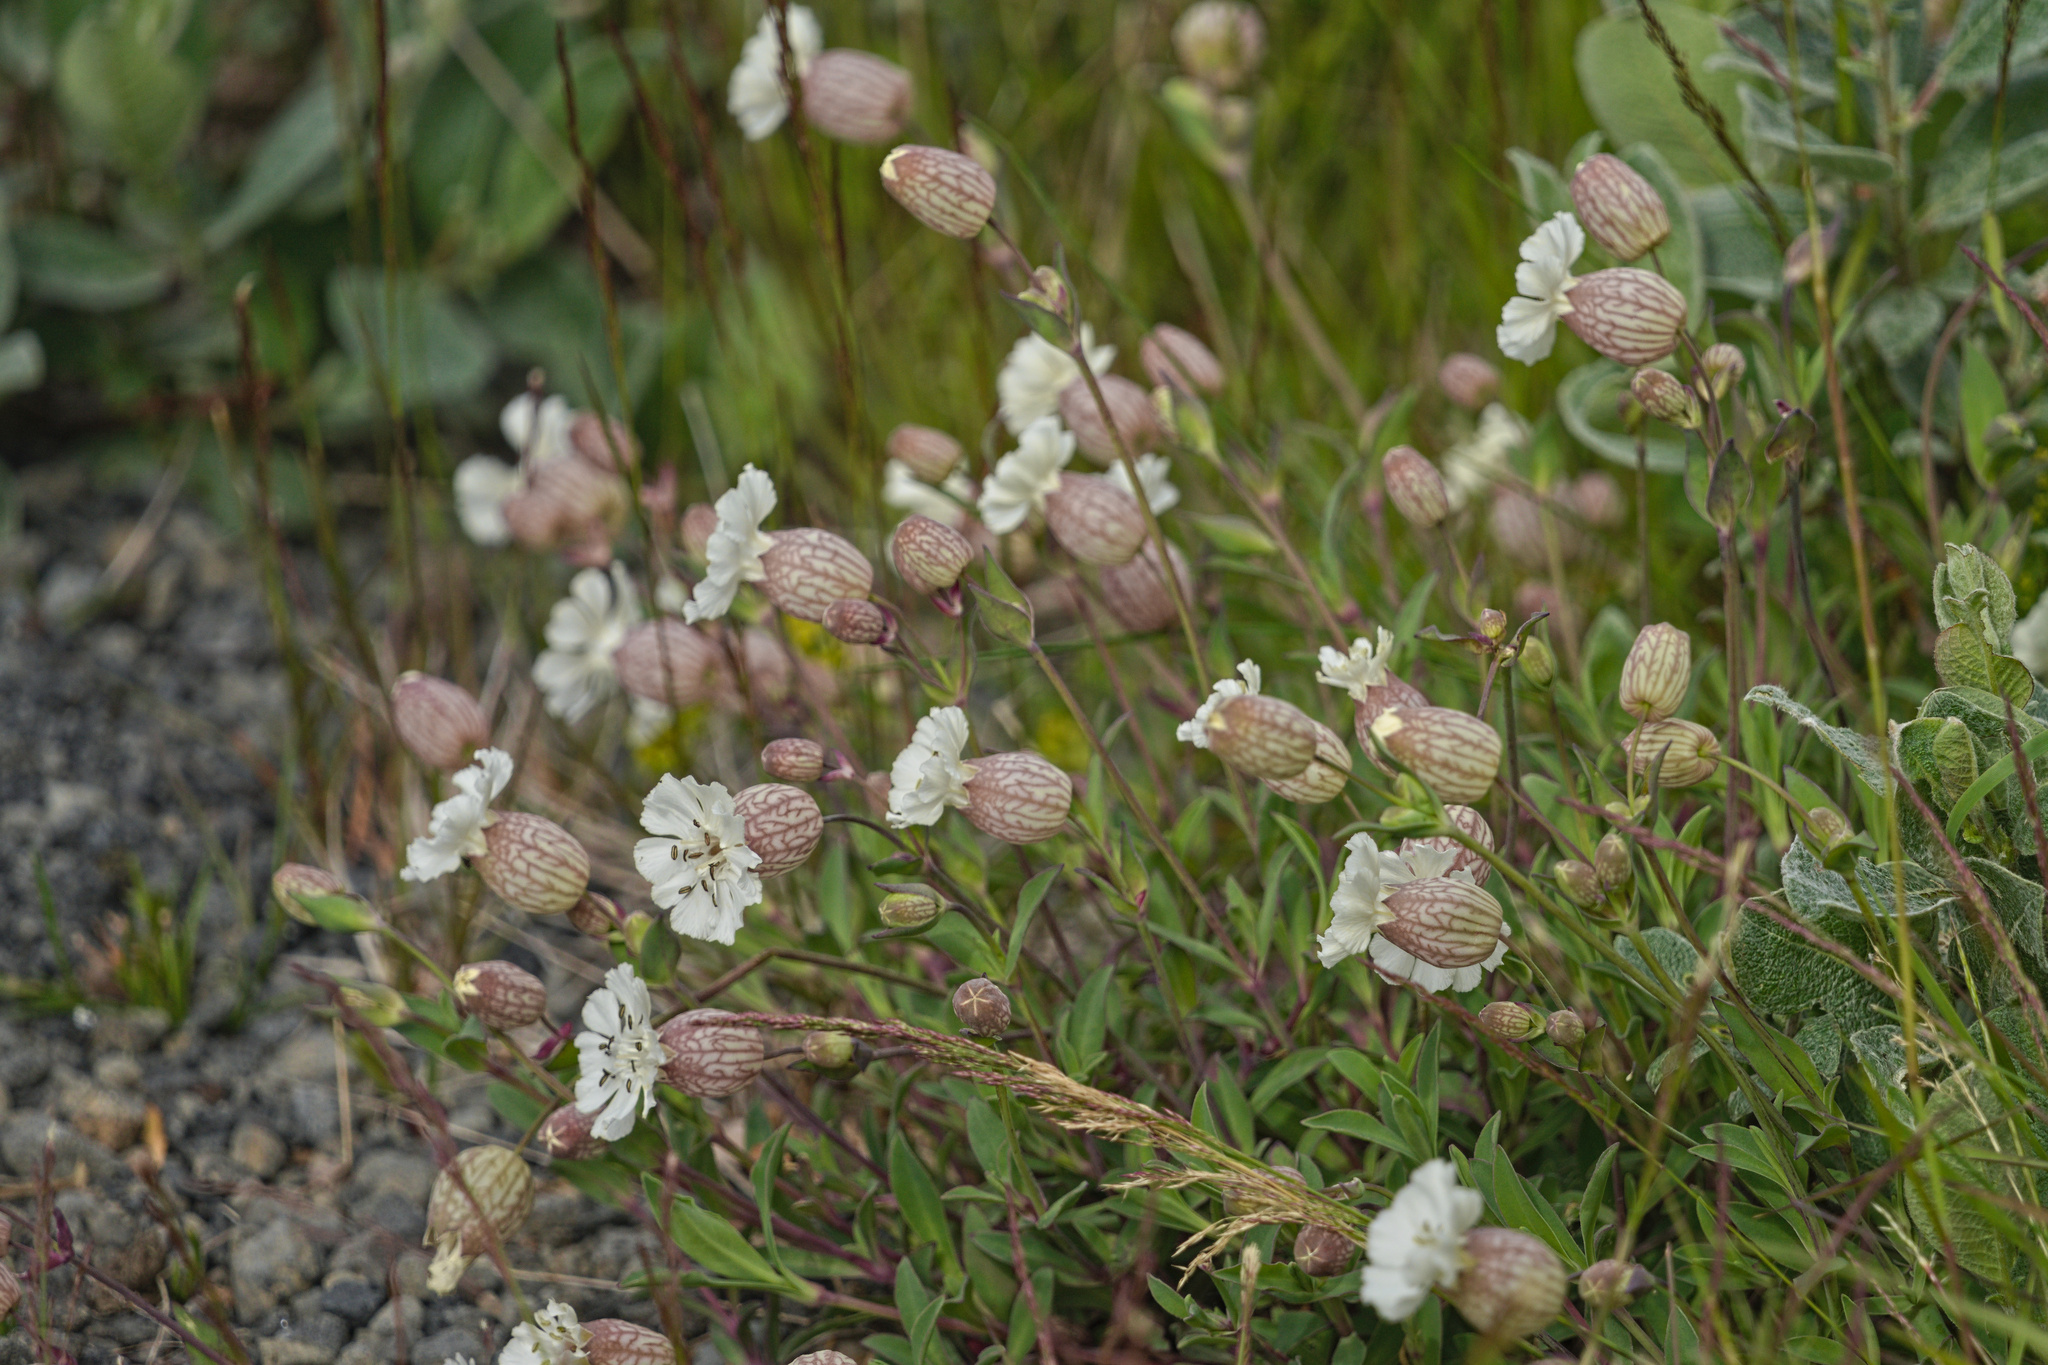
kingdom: Plantae
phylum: Tracheophyta
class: Magnoliopsida
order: Caryophyllales
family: Caryophyllaceae
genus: Silene
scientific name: Silene uniflora
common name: Sea campion
